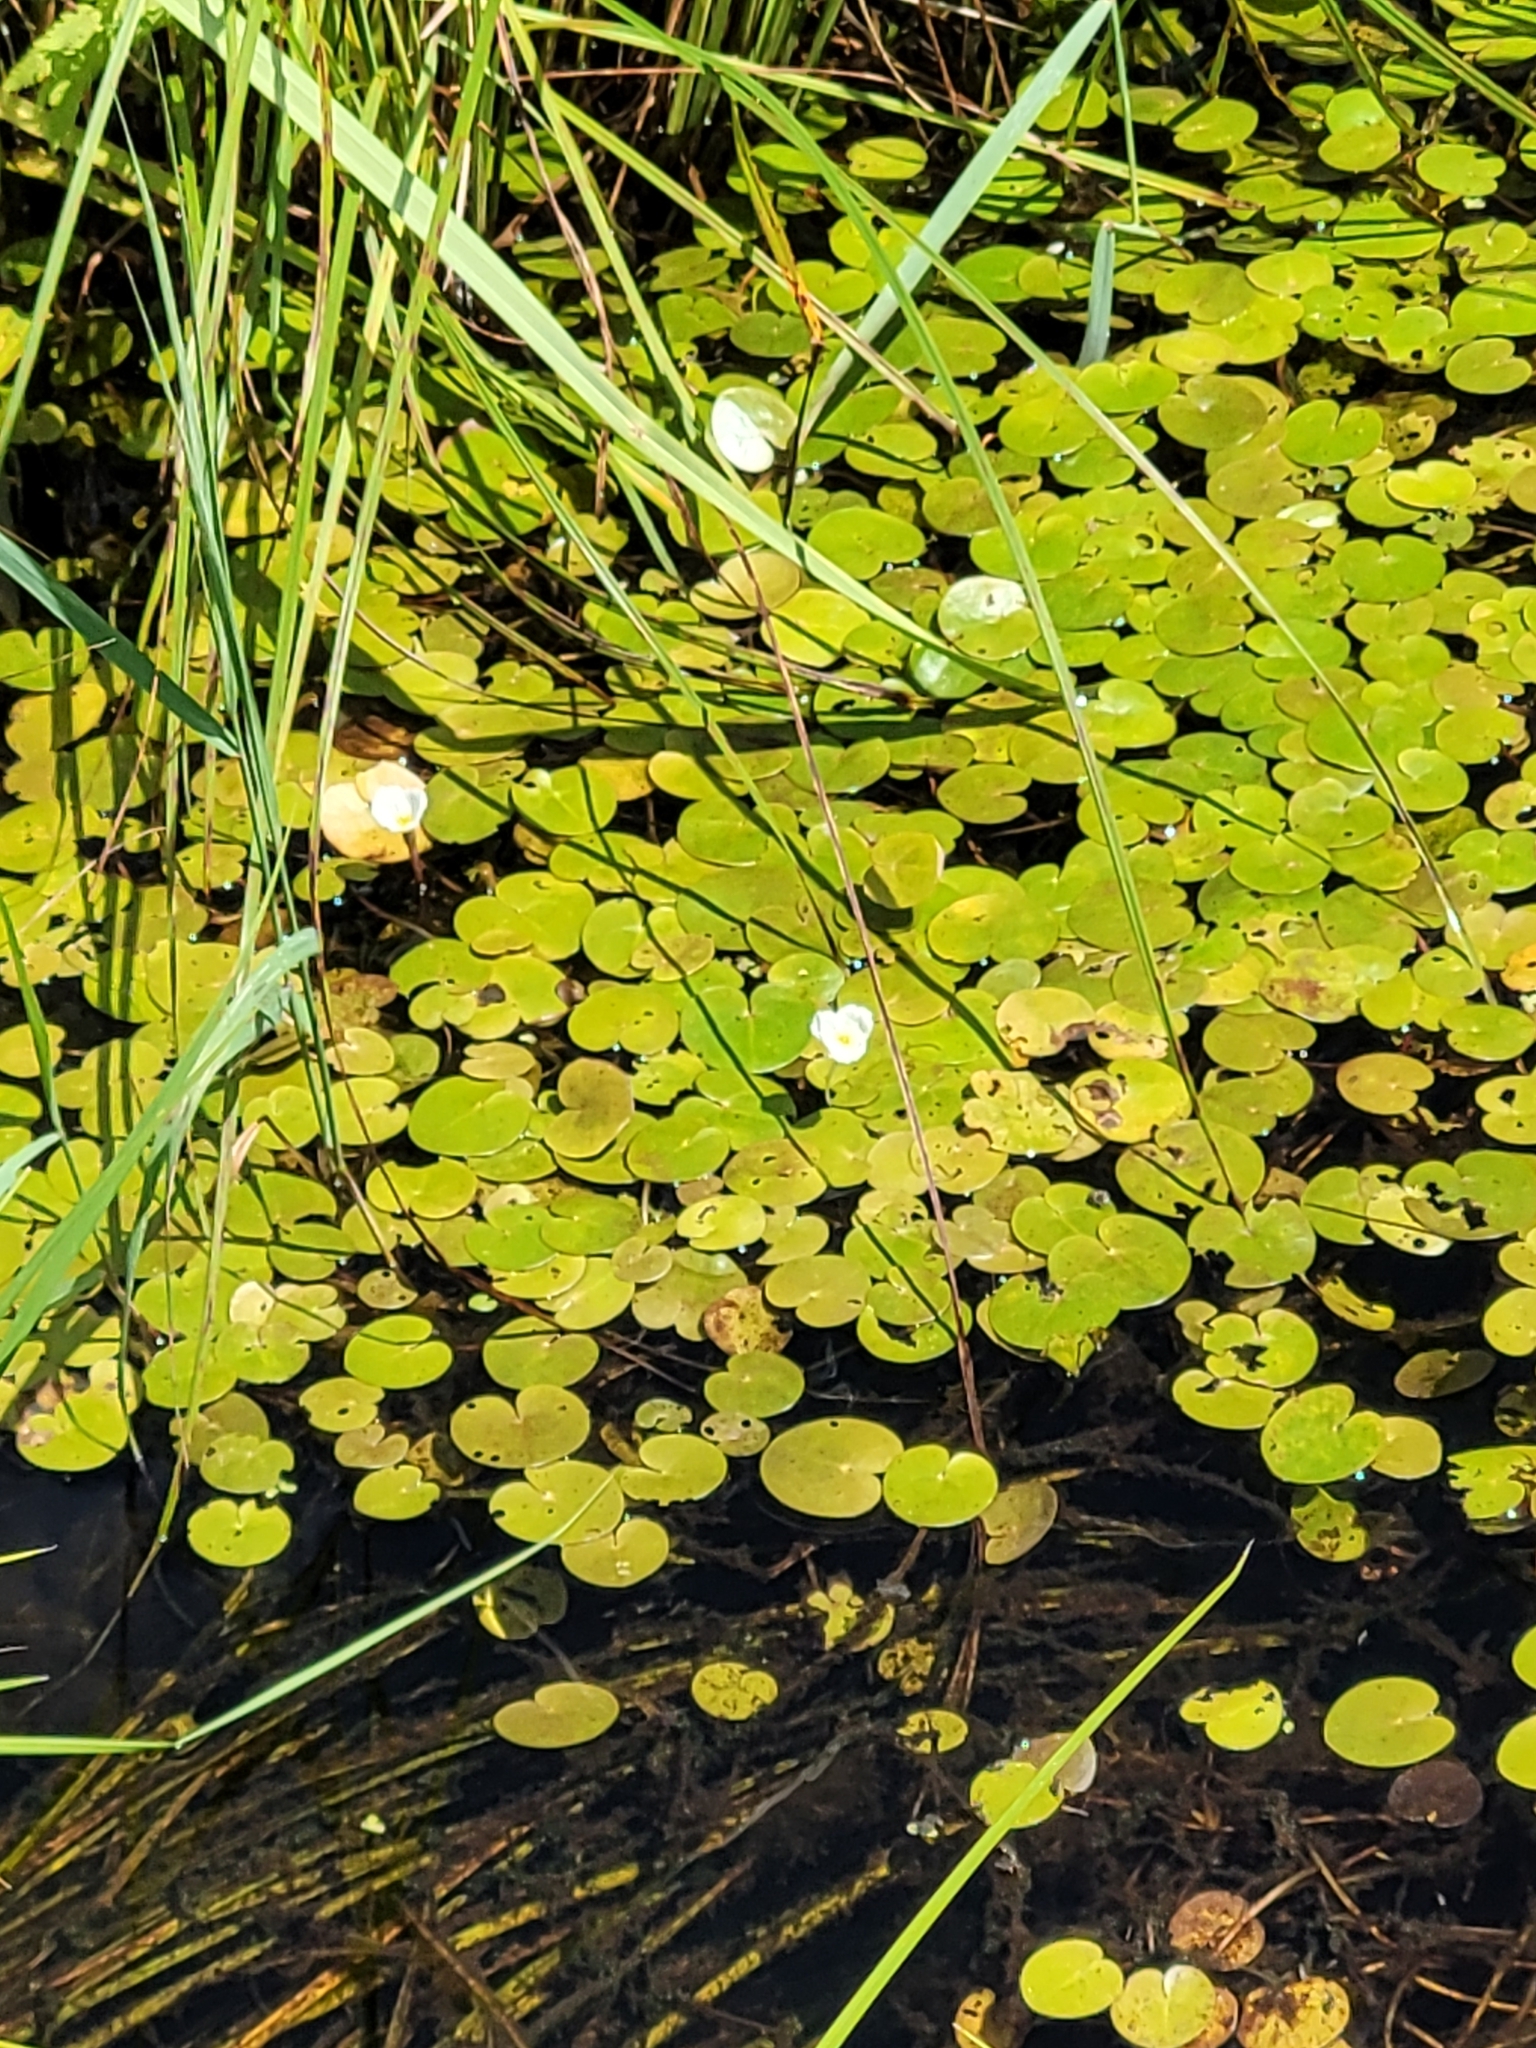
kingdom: Plantae
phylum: Tracheophyta
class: Liliopsida
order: Alismatales
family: Hydrocharitaceae
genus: Hydrocharis
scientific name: Hydrocharis morsus-ranae
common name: Frogbit
